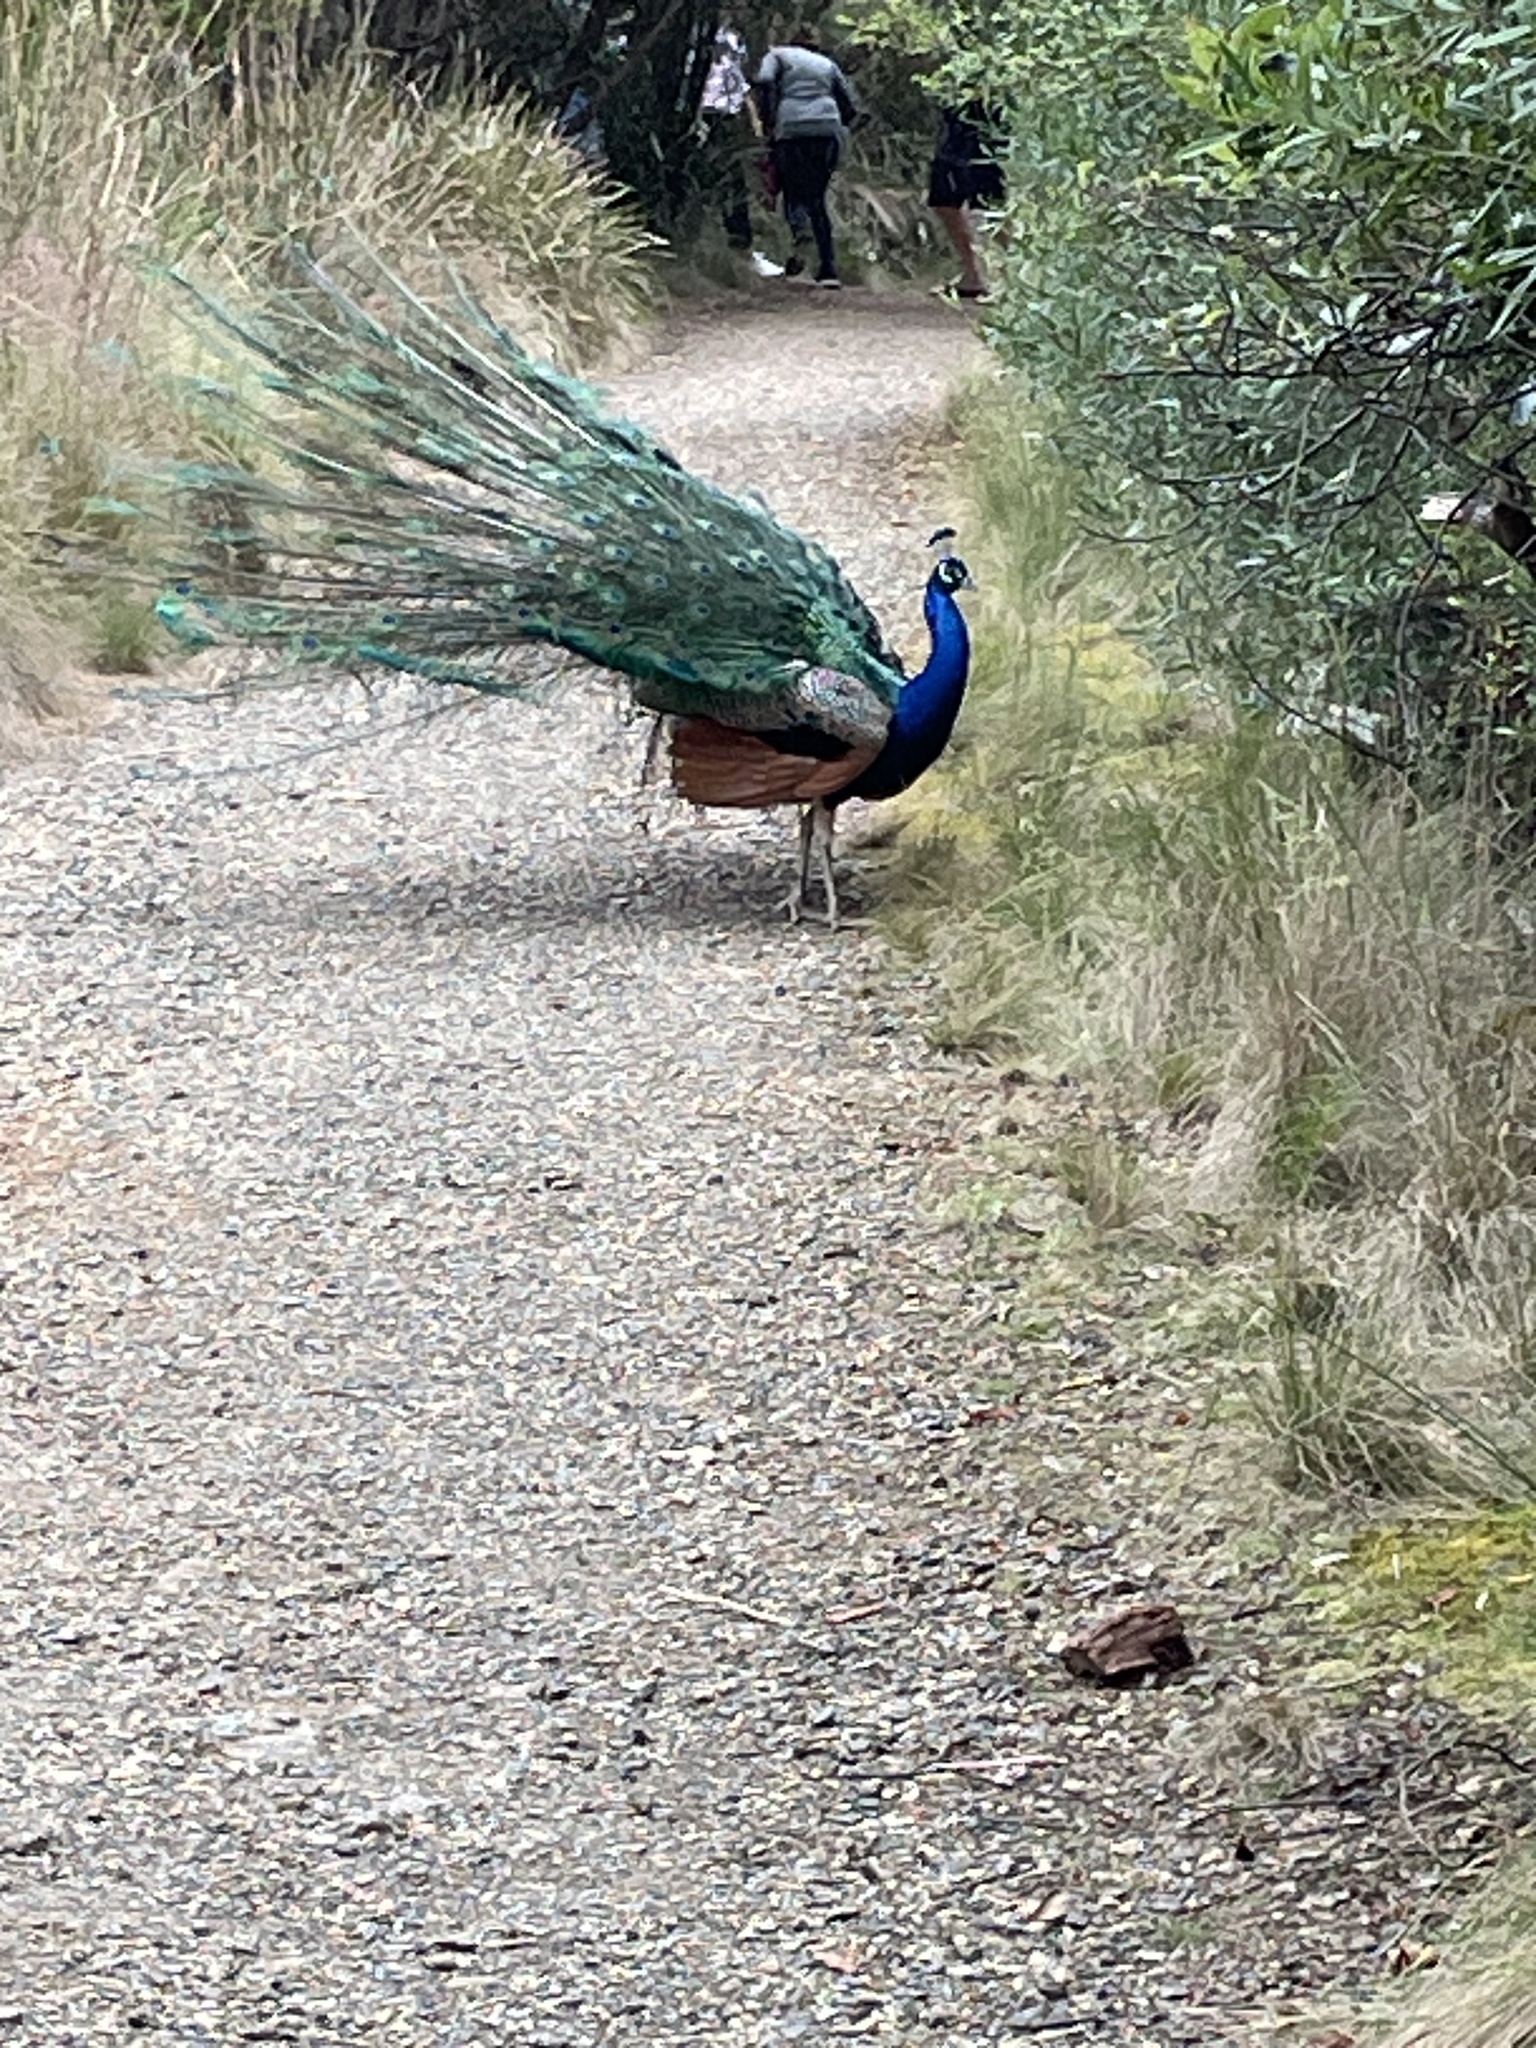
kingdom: Animalia
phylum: Chordata
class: Aves
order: Galliformes
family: Phasianidae
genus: Pavo
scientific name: Pavo cristatus
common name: Indian peafowl
